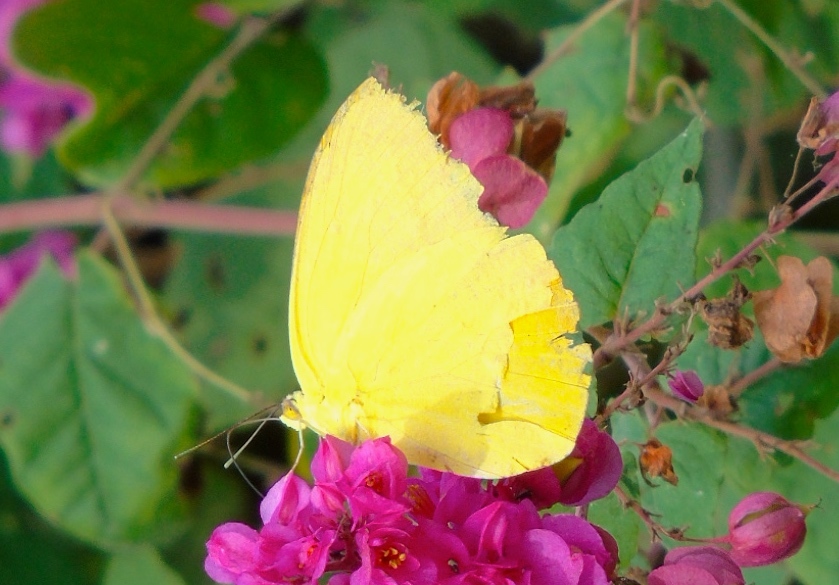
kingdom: Animalia
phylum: Arthropoda
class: Insecta
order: Lepidoptera
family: Pieridae
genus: Phoebis
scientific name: Phoebis agarithe
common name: Large orange sulphur
